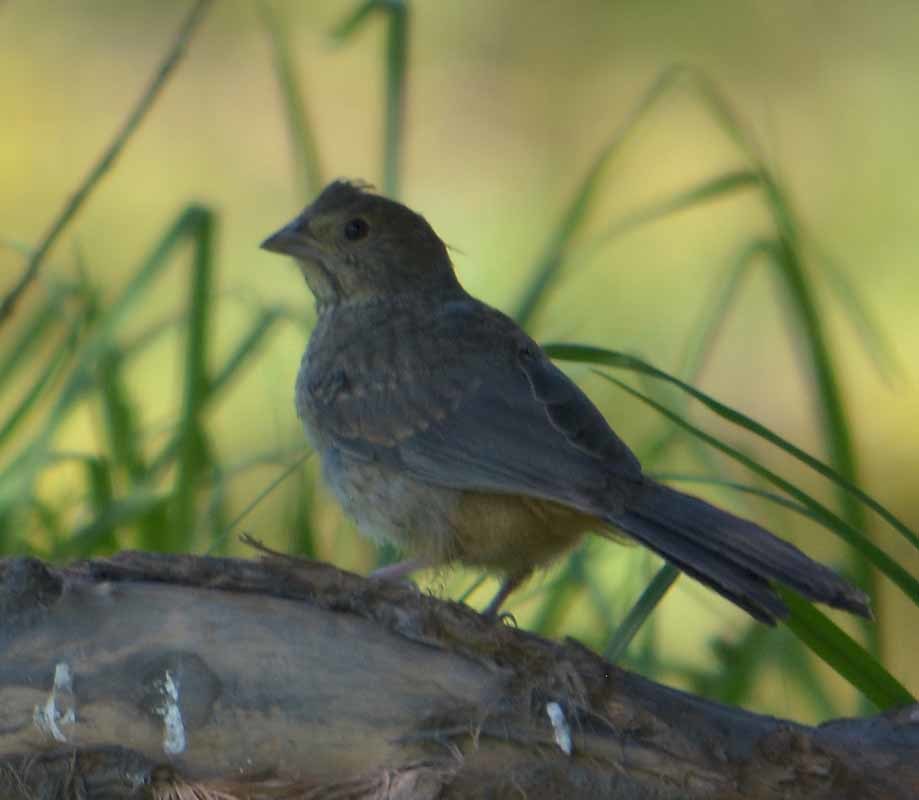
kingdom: Animalia
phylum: Chordata
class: Aves
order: Passeriformes
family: Passerellidae
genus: Melozone
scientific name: Melozone fusca
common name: Canyon towhee
